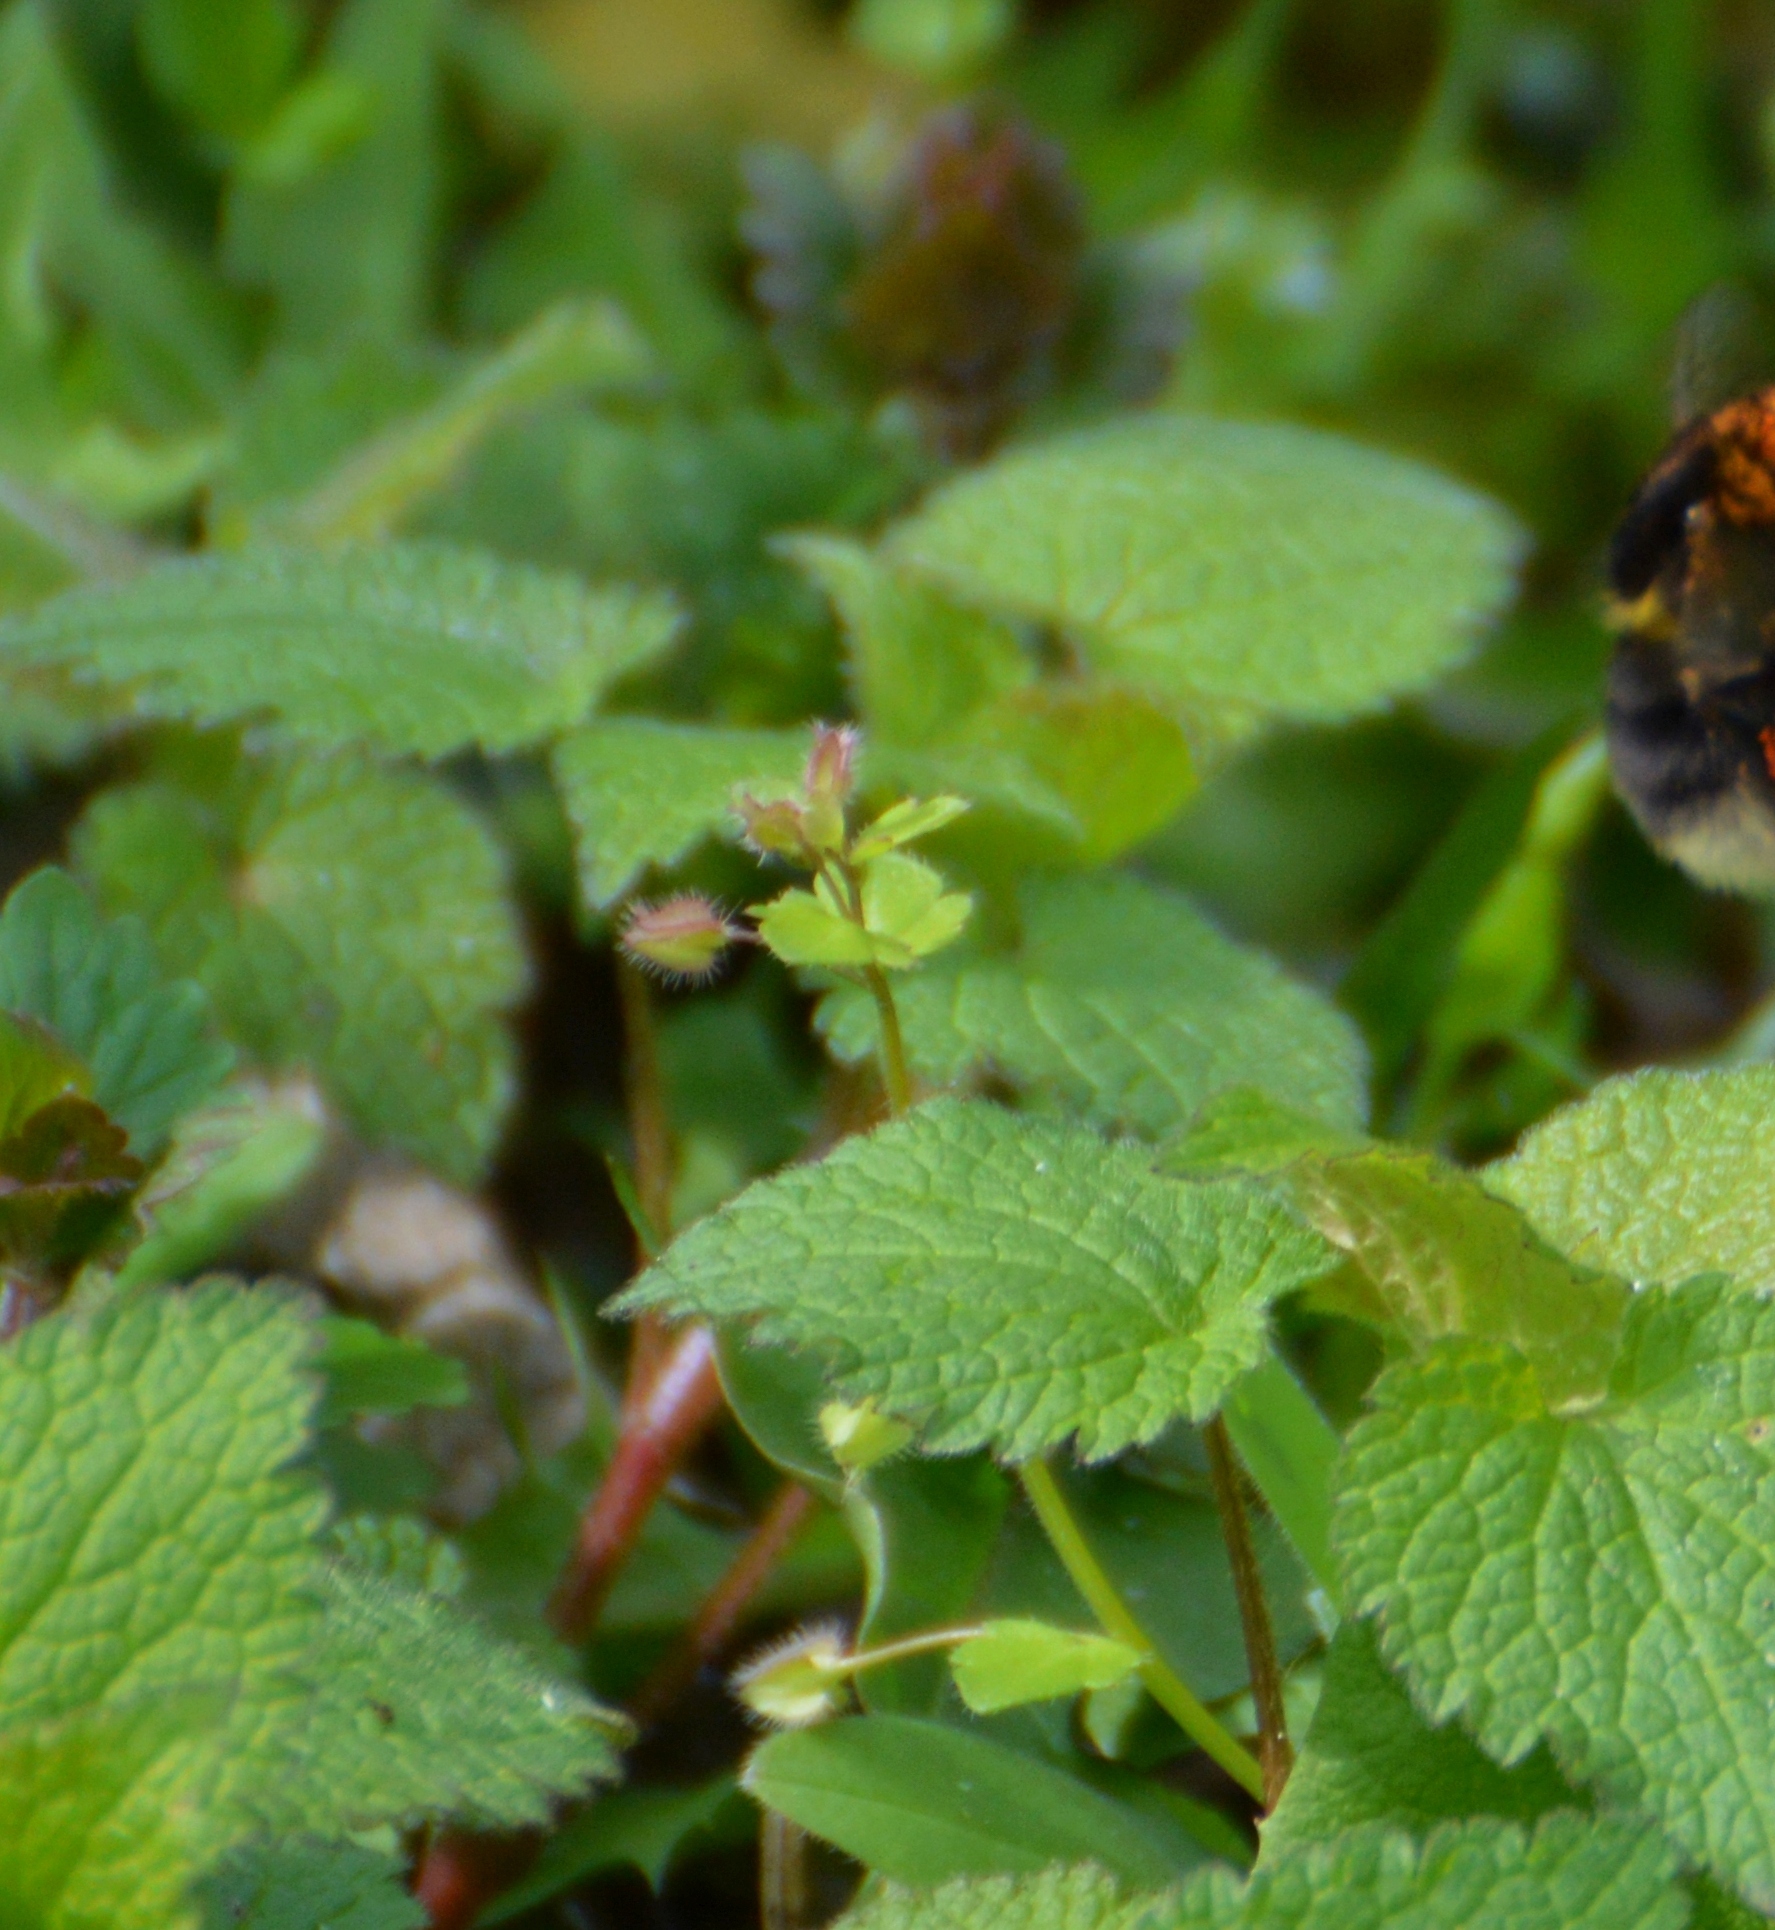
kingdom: Plantae
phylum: Tracheophyta
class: Magnoliopsida
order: Lamiales
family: Plantaginaceae
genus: Veronica
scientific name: Veronica sublobata
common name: False ivy-leaved speedwell
